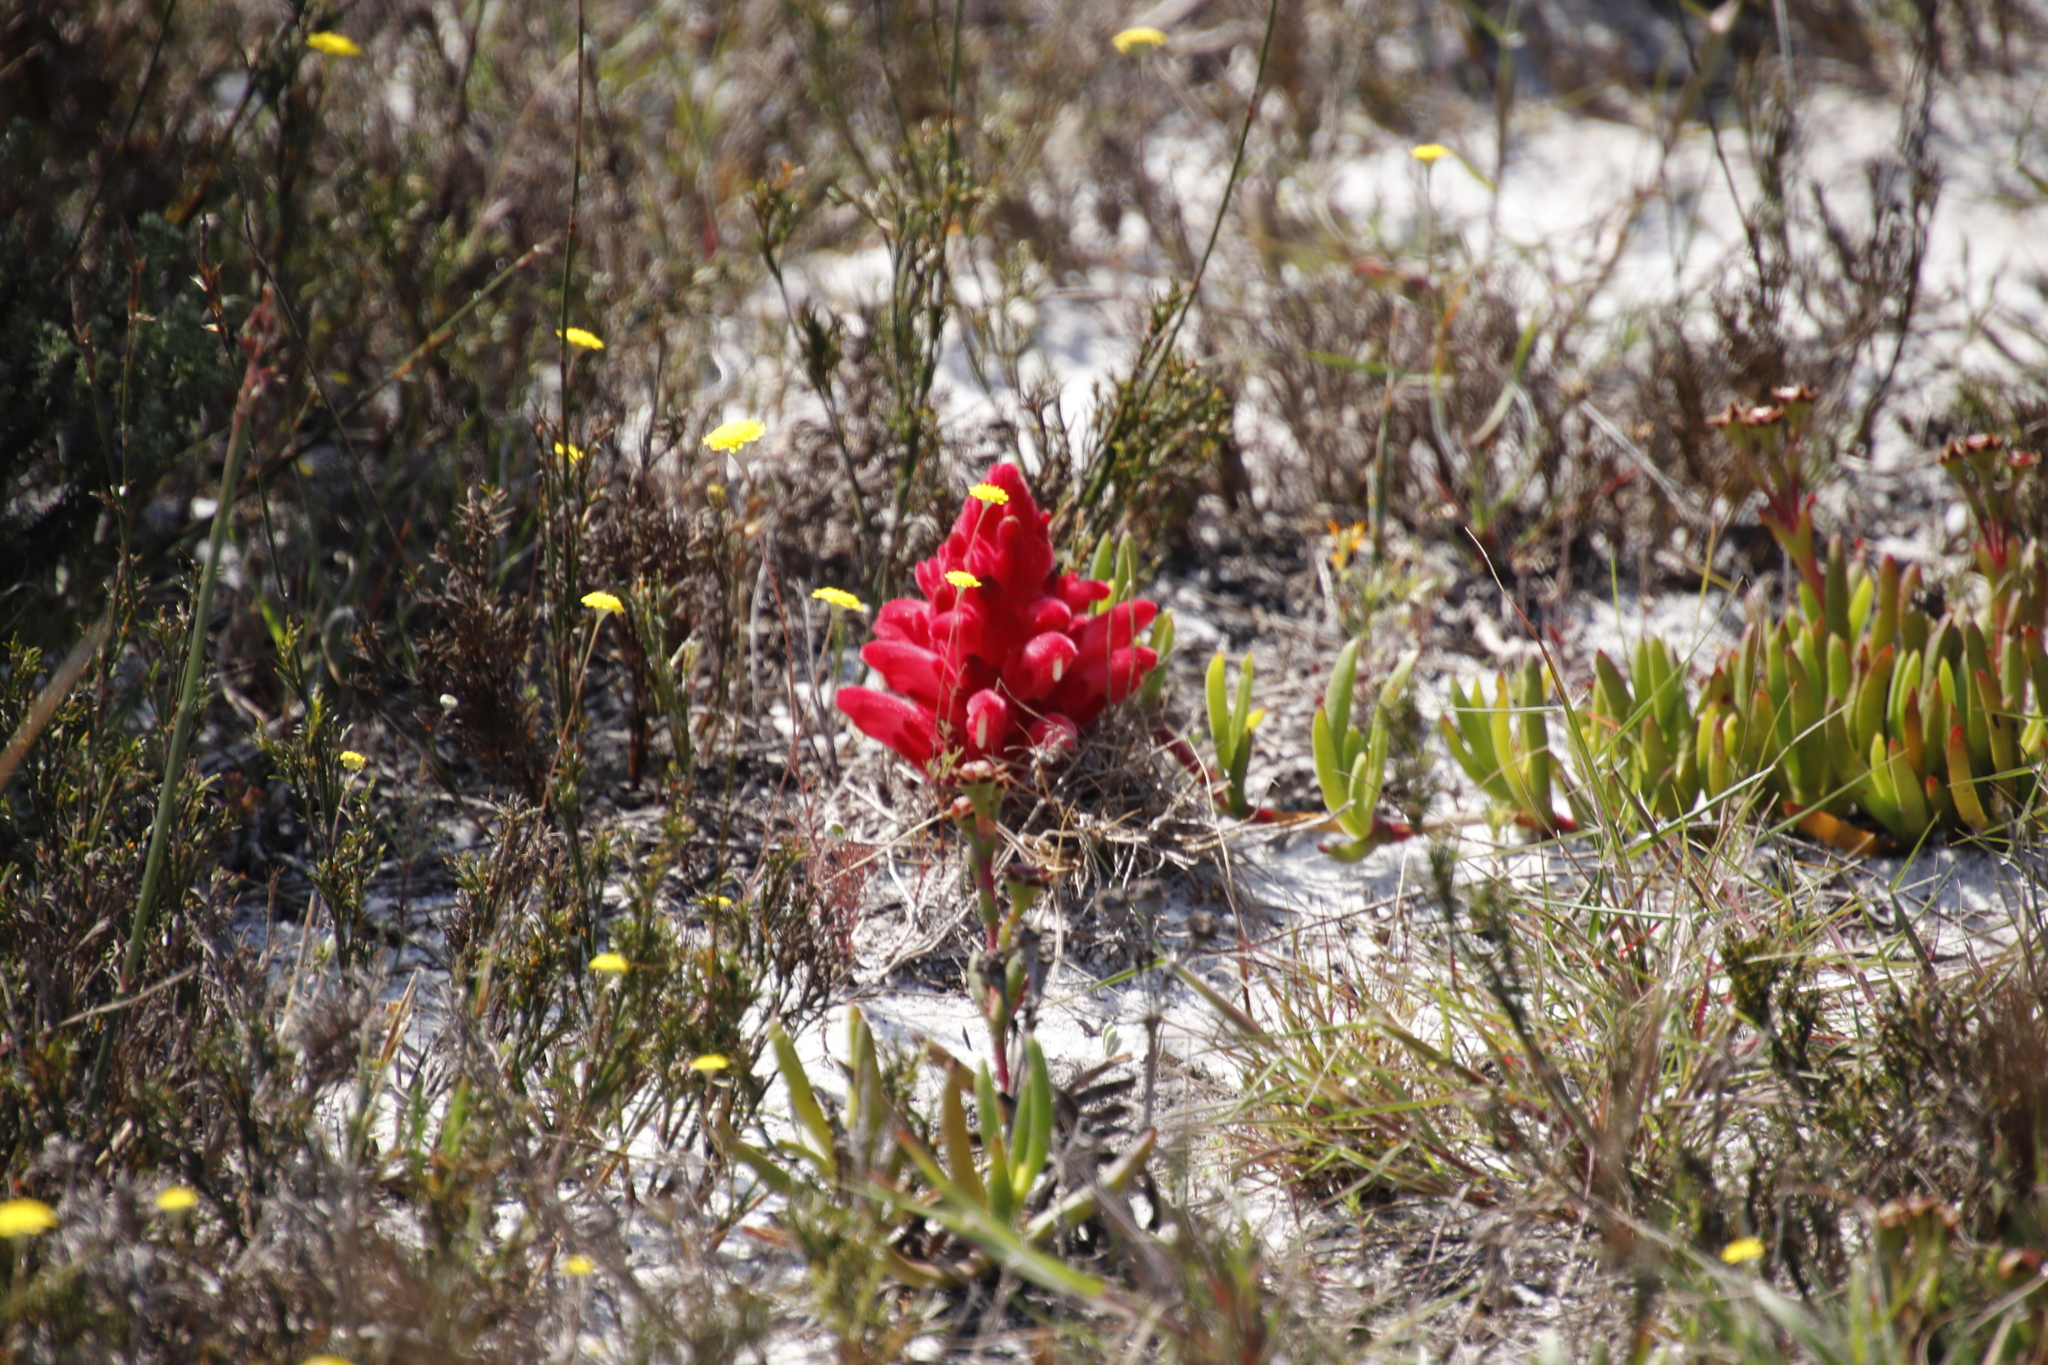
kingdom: Plantae
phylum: Tracheophyta
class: Magnoliopsida
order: Lamiales
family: Orobanchaceae
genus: Hyobanche
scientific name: Hyobanche sanguinea
